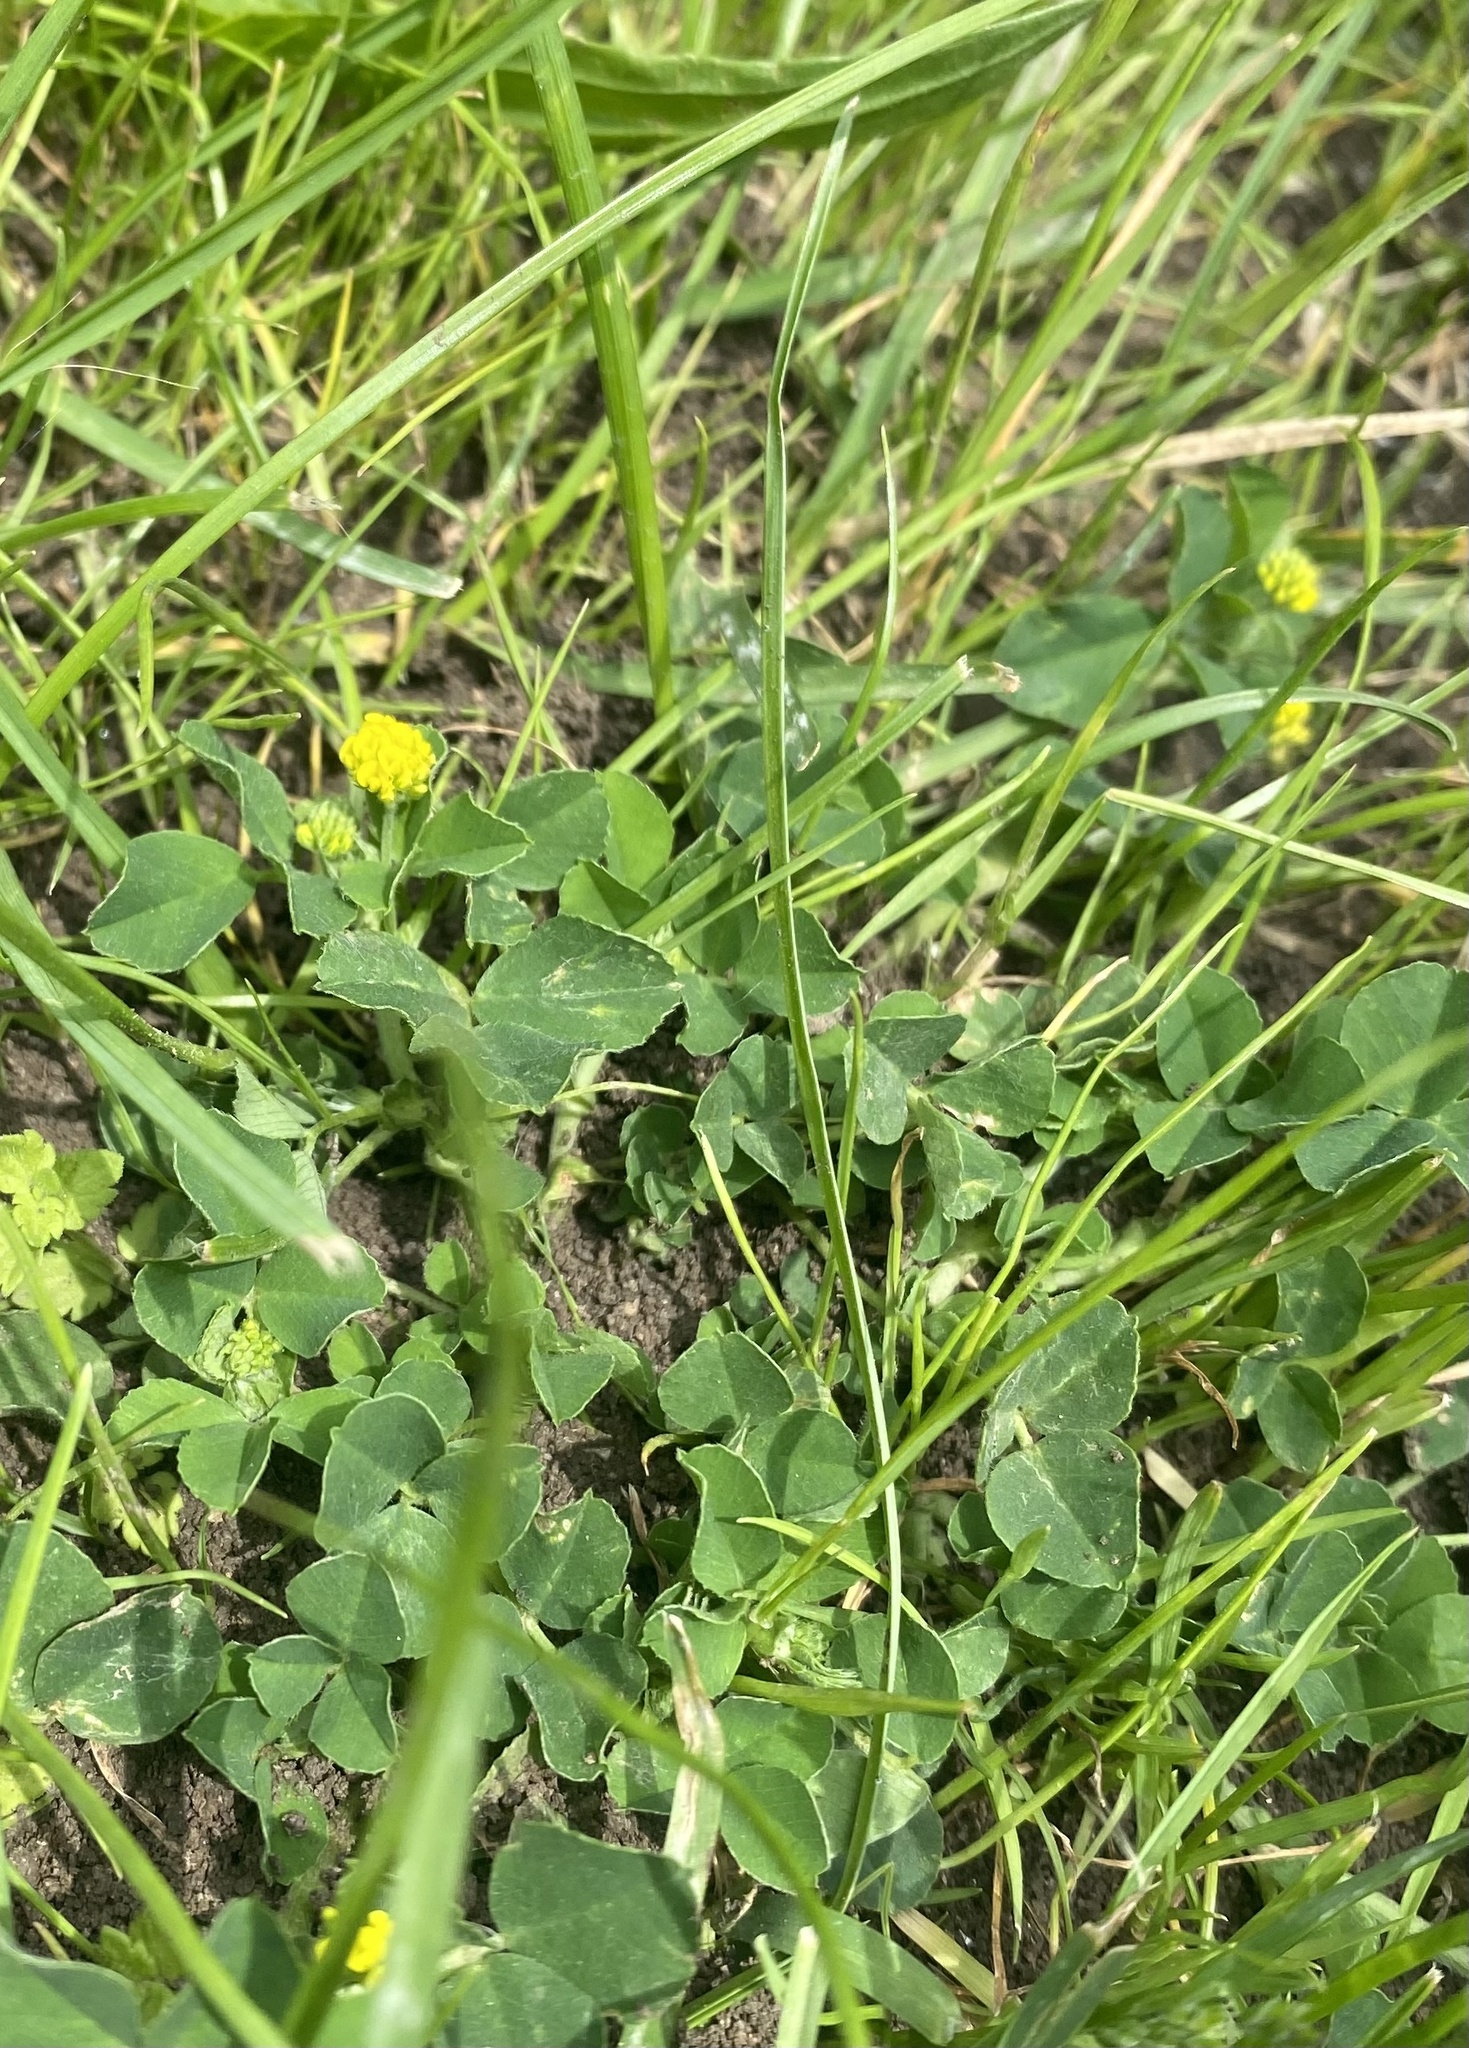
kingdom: Plantae
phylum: Tracheophyta
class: Magnoliopsida
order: Fabales
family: Fabaceae
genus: Medicago
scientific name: Medicago lupulina
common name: Black medick
